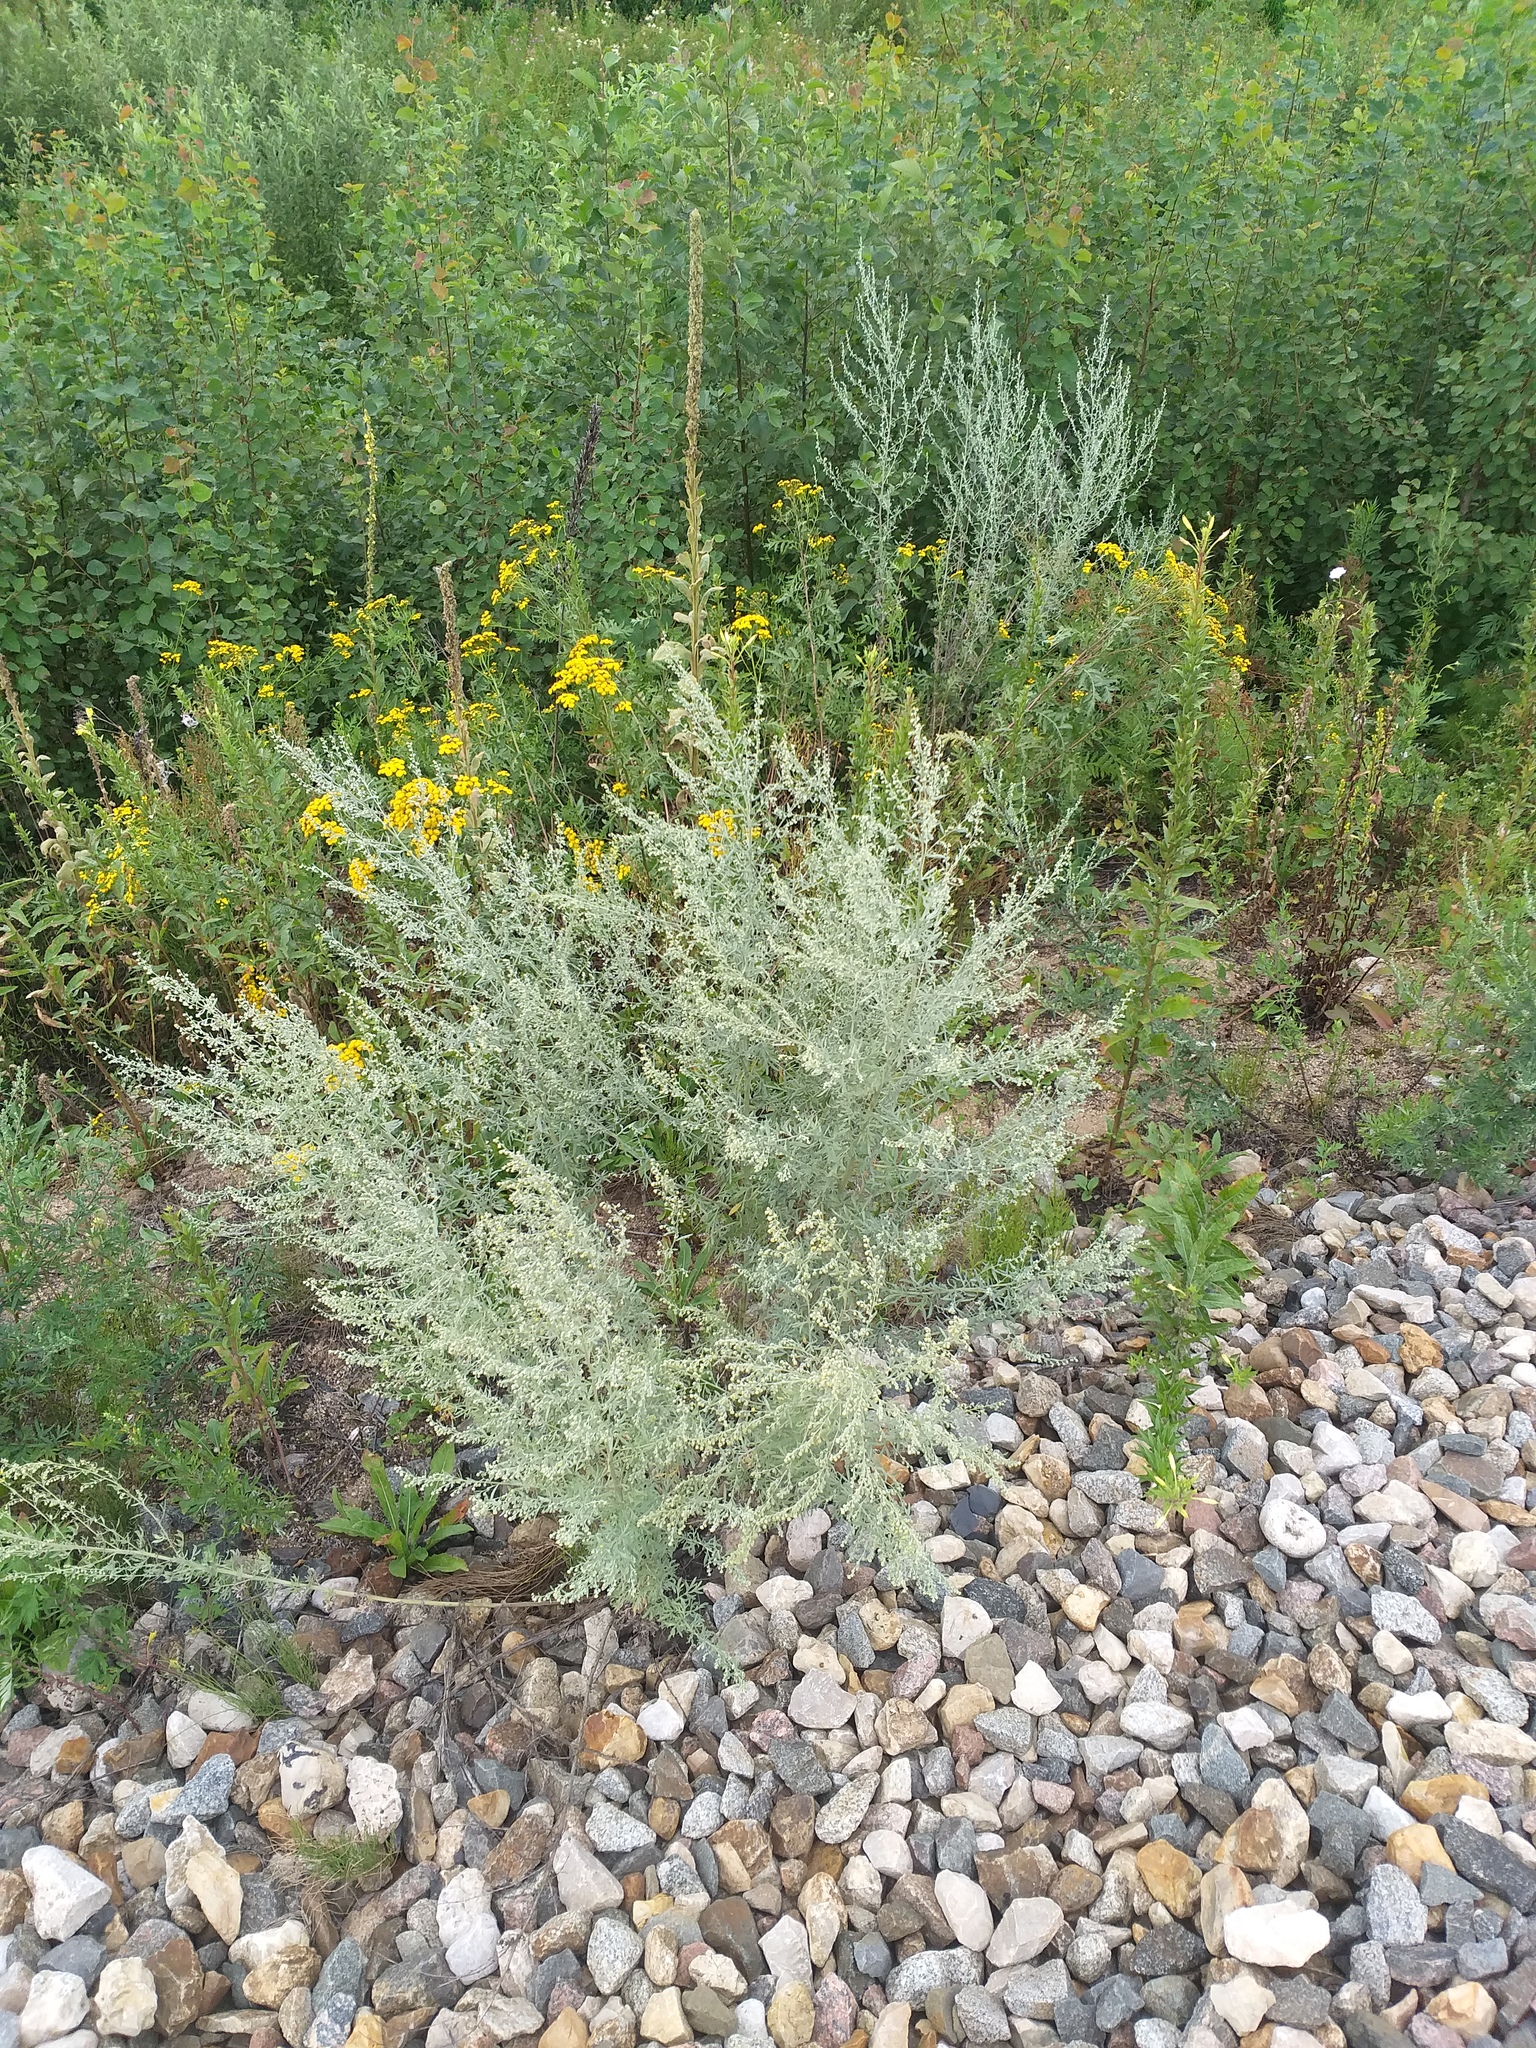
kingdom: Plantae
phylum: Tracheophyta
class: Magnoliopsida
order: Asterales
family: Asteraceae
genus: Artemisia
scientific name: Artemisia absinthium
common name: Wormwood
